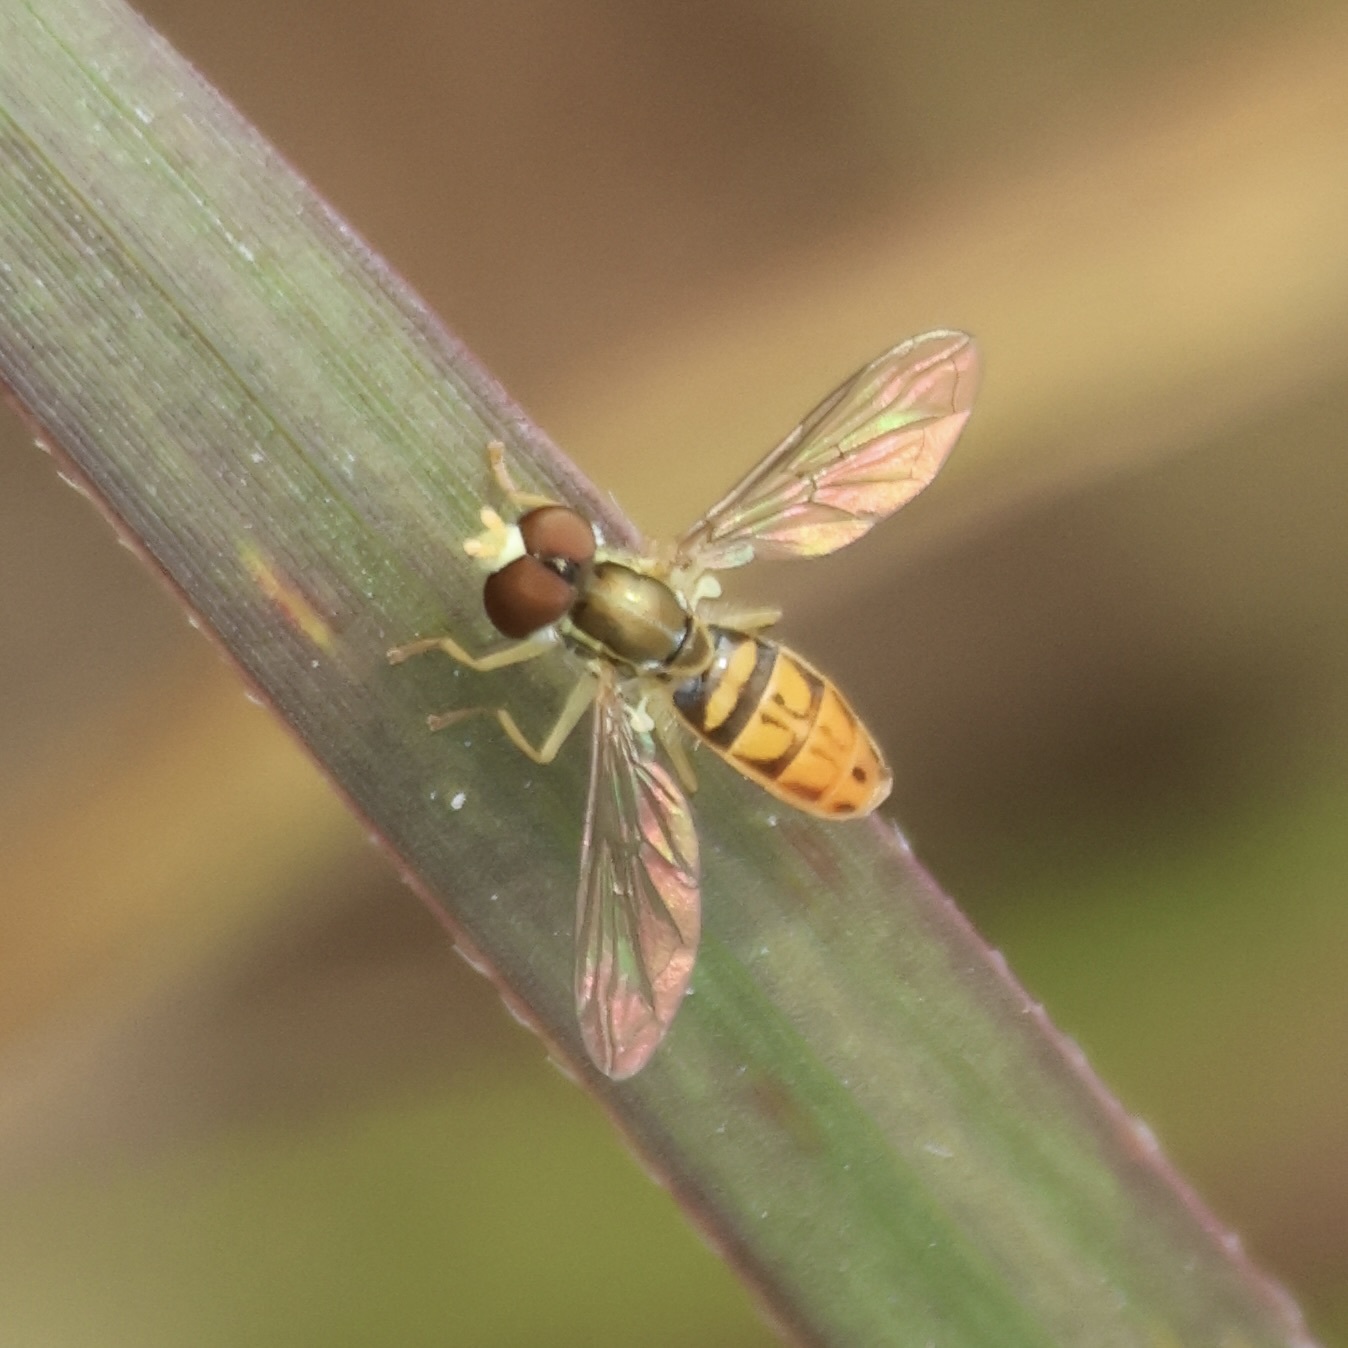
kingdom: Animalia
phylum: Arthropoda
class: Insecta
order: Diptera
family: Syrphidae
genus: Toxomerus
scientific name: Toxomerus marginatus
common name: Syrphid fly
